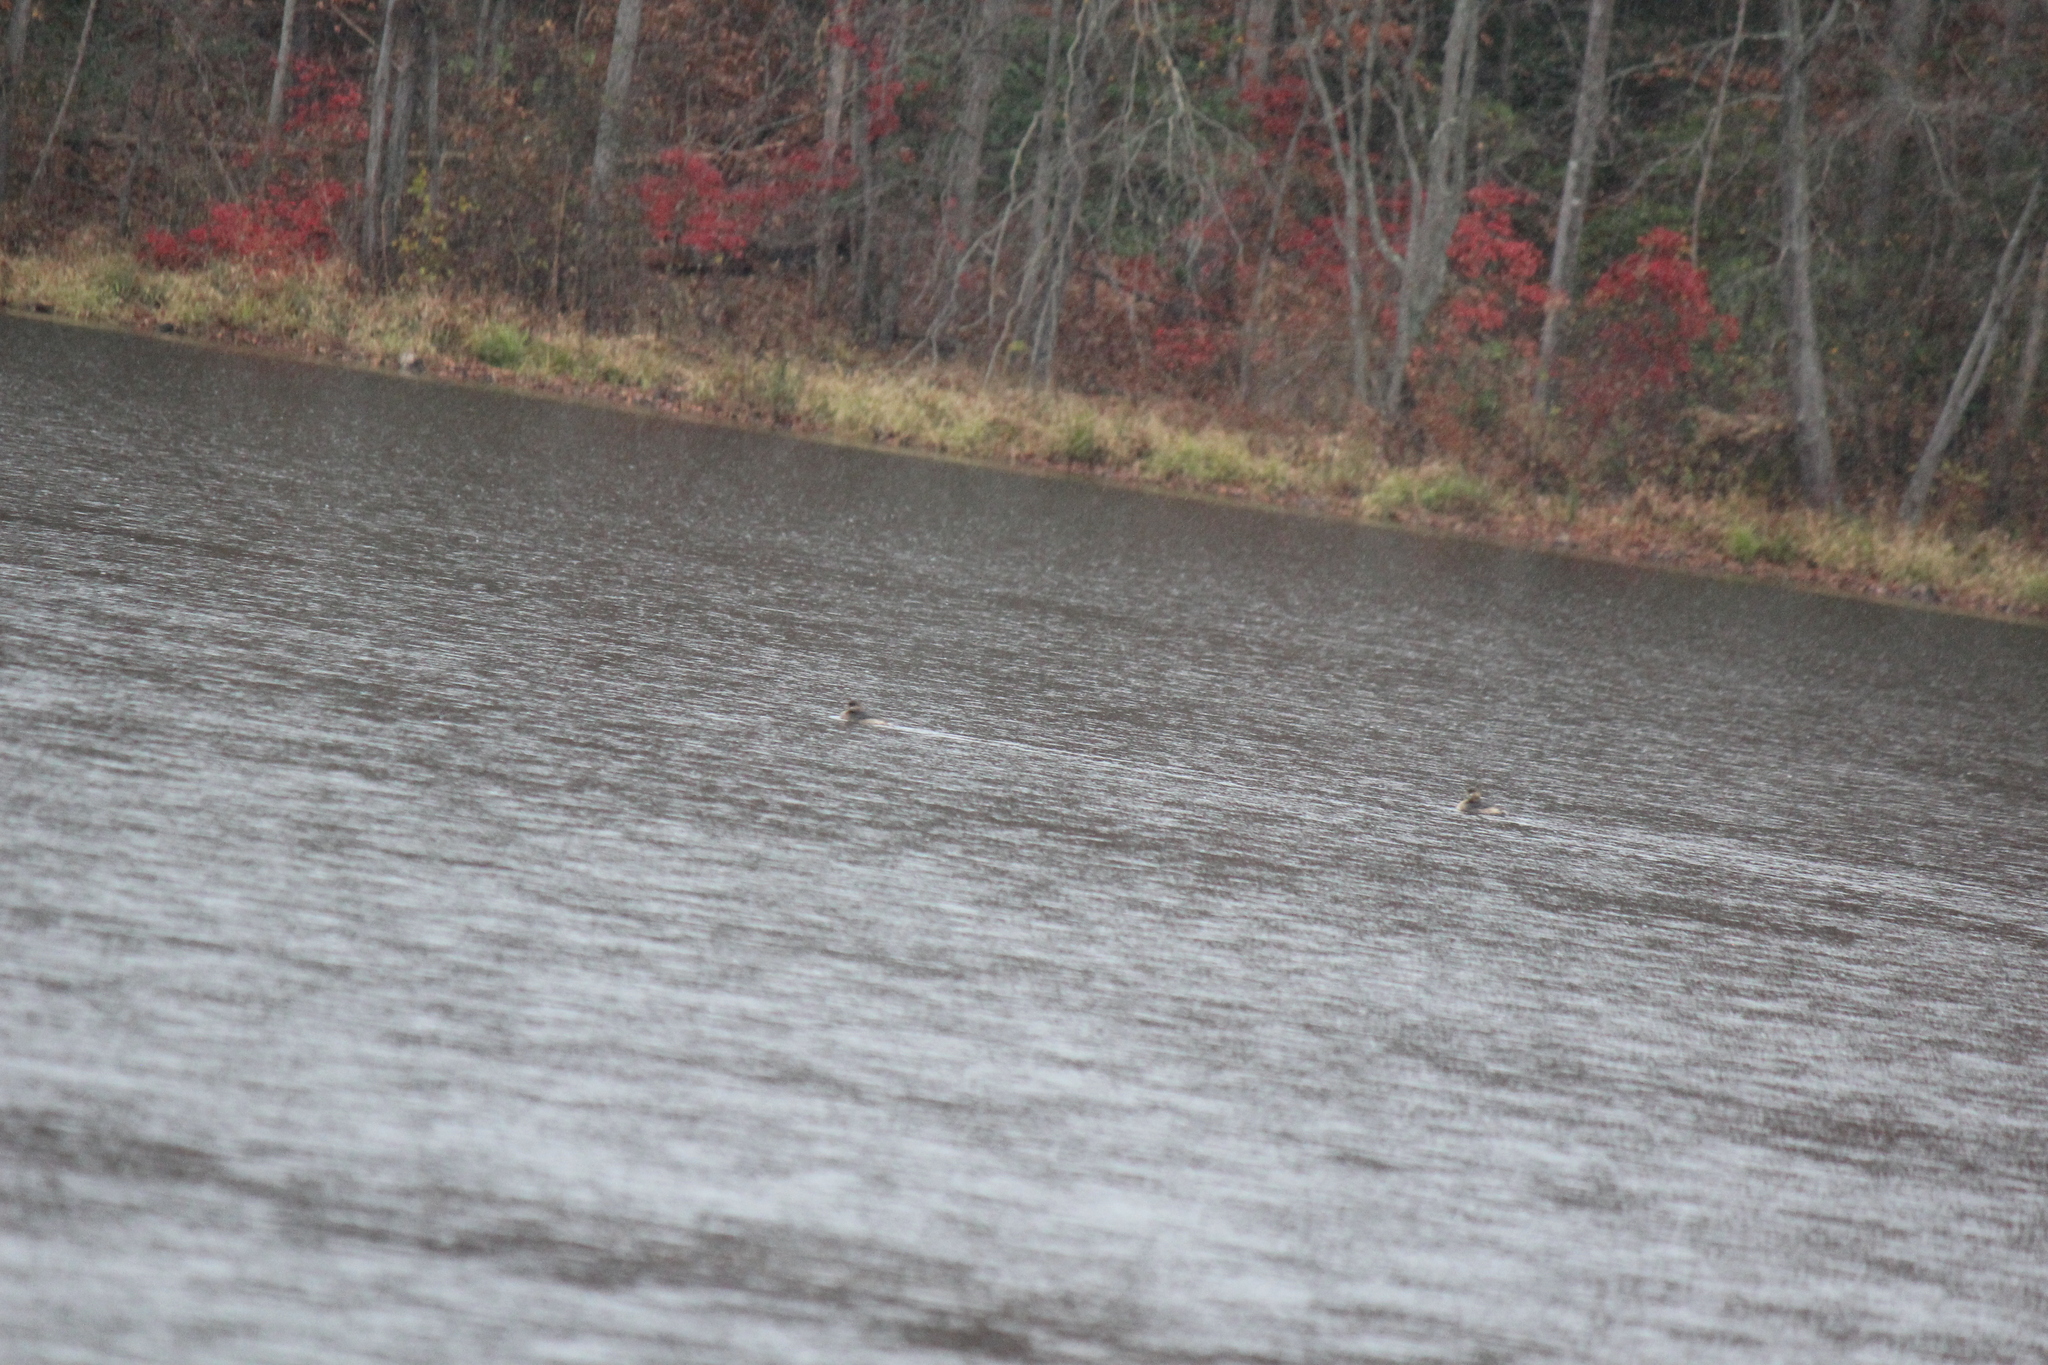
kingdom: Animalia
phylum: Chordata
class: Aves
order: Podicipediformes
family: Podicipedidae
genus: Podilymbus
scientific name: Podilymbus podiceps
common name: Pied-billed grebe
